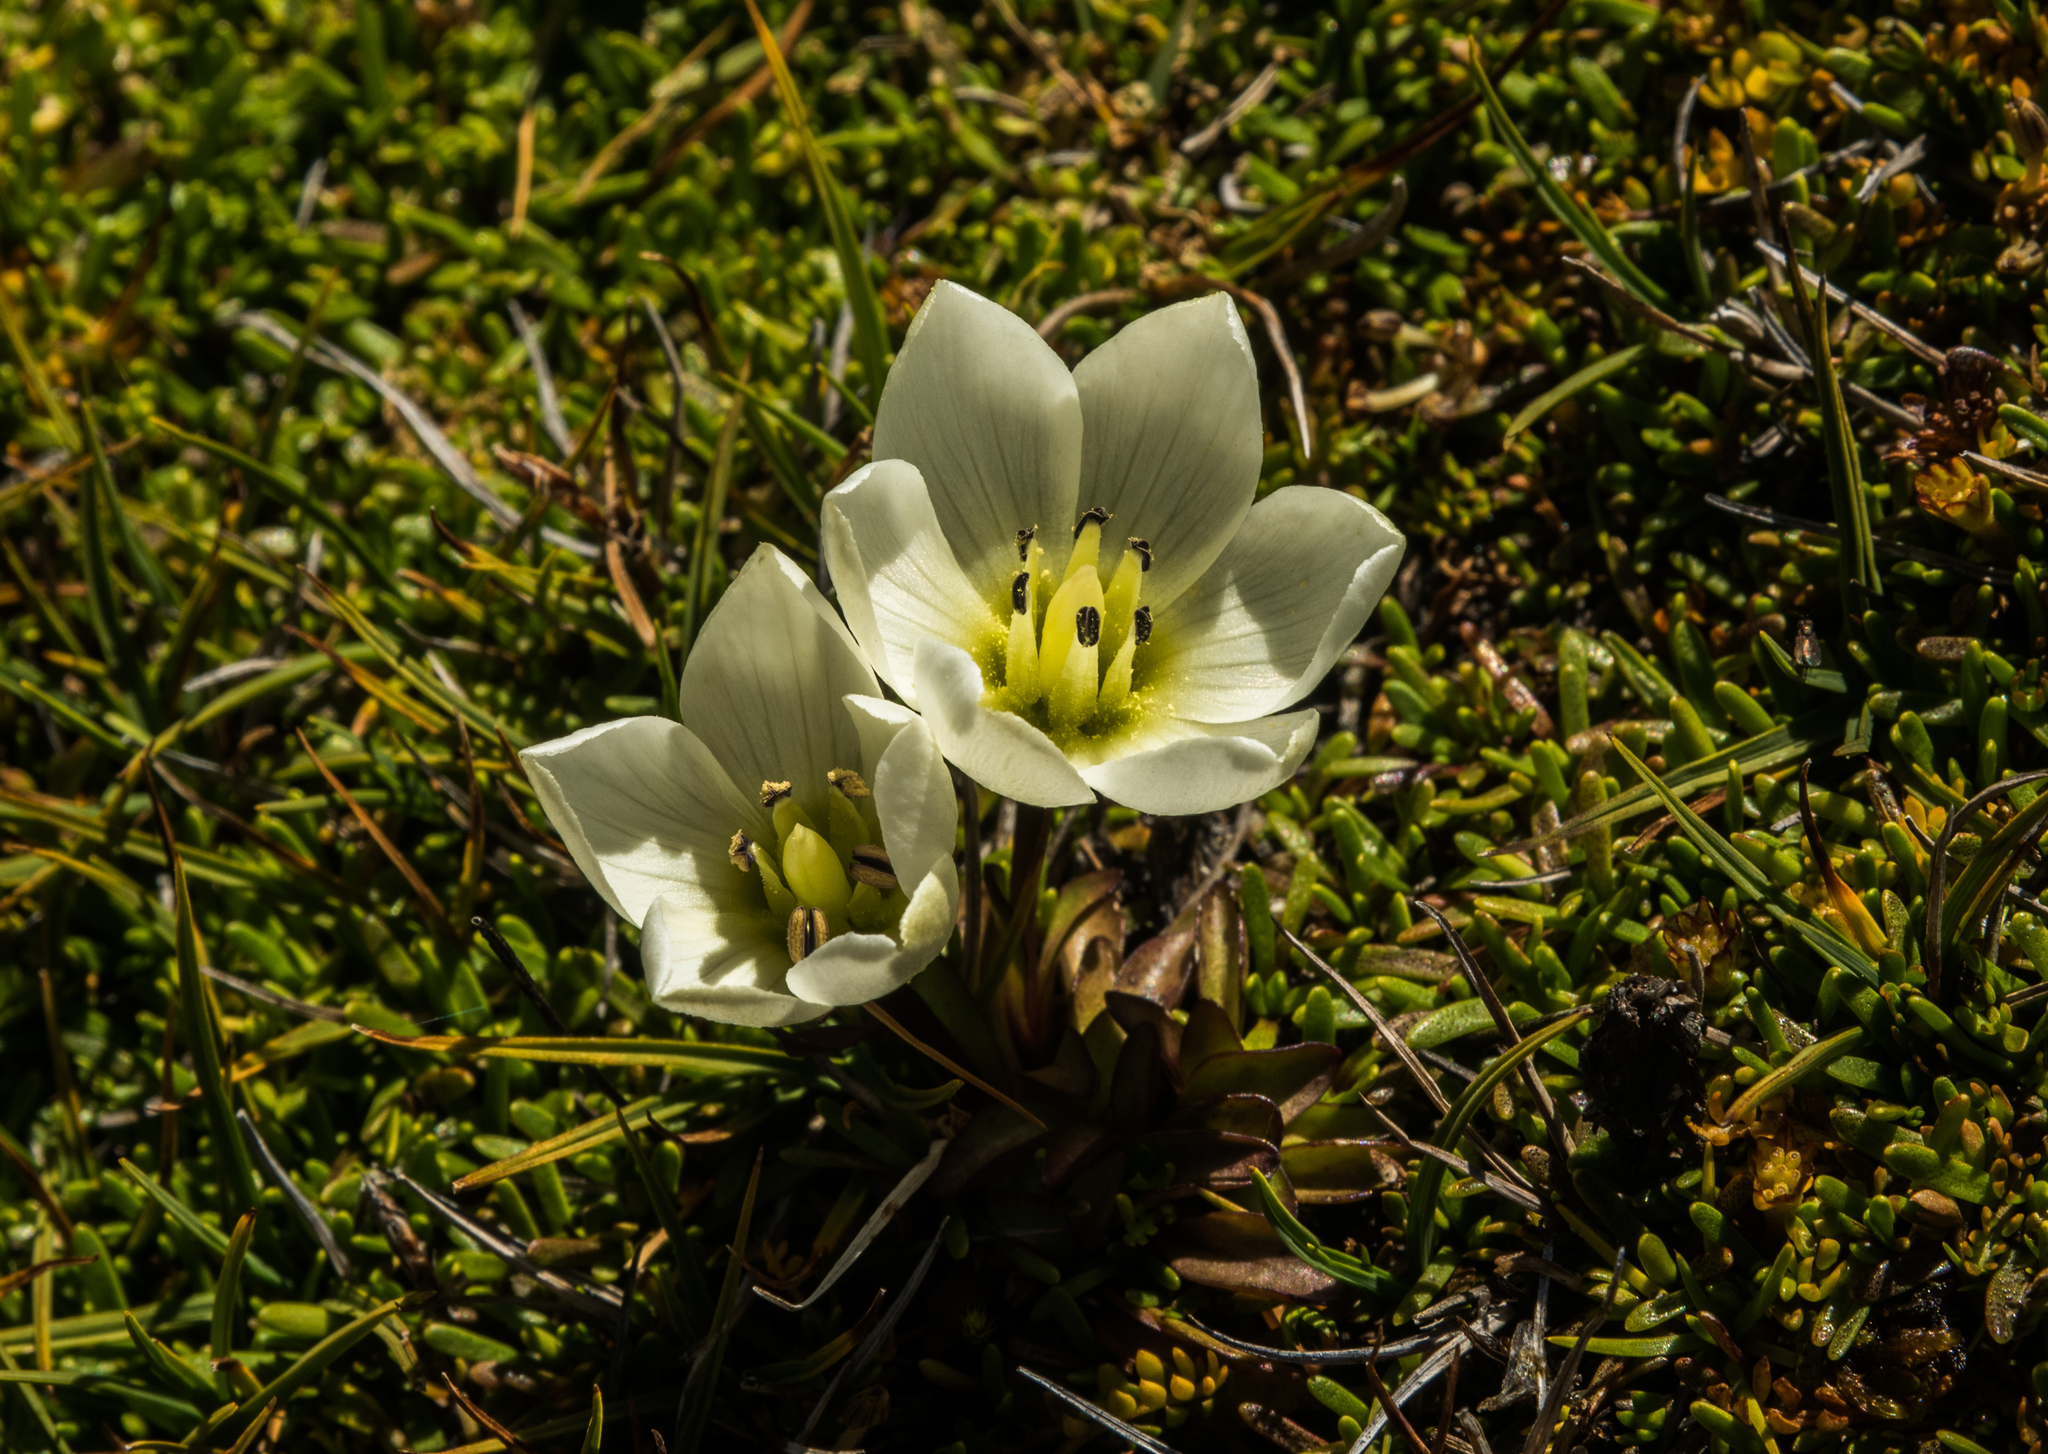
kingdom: Plantae
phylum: Tracheophyta
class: Magnoliopsida
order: Gentianales
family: Gentianaceae
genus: Gentianella
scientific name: Gentianella amabilis
